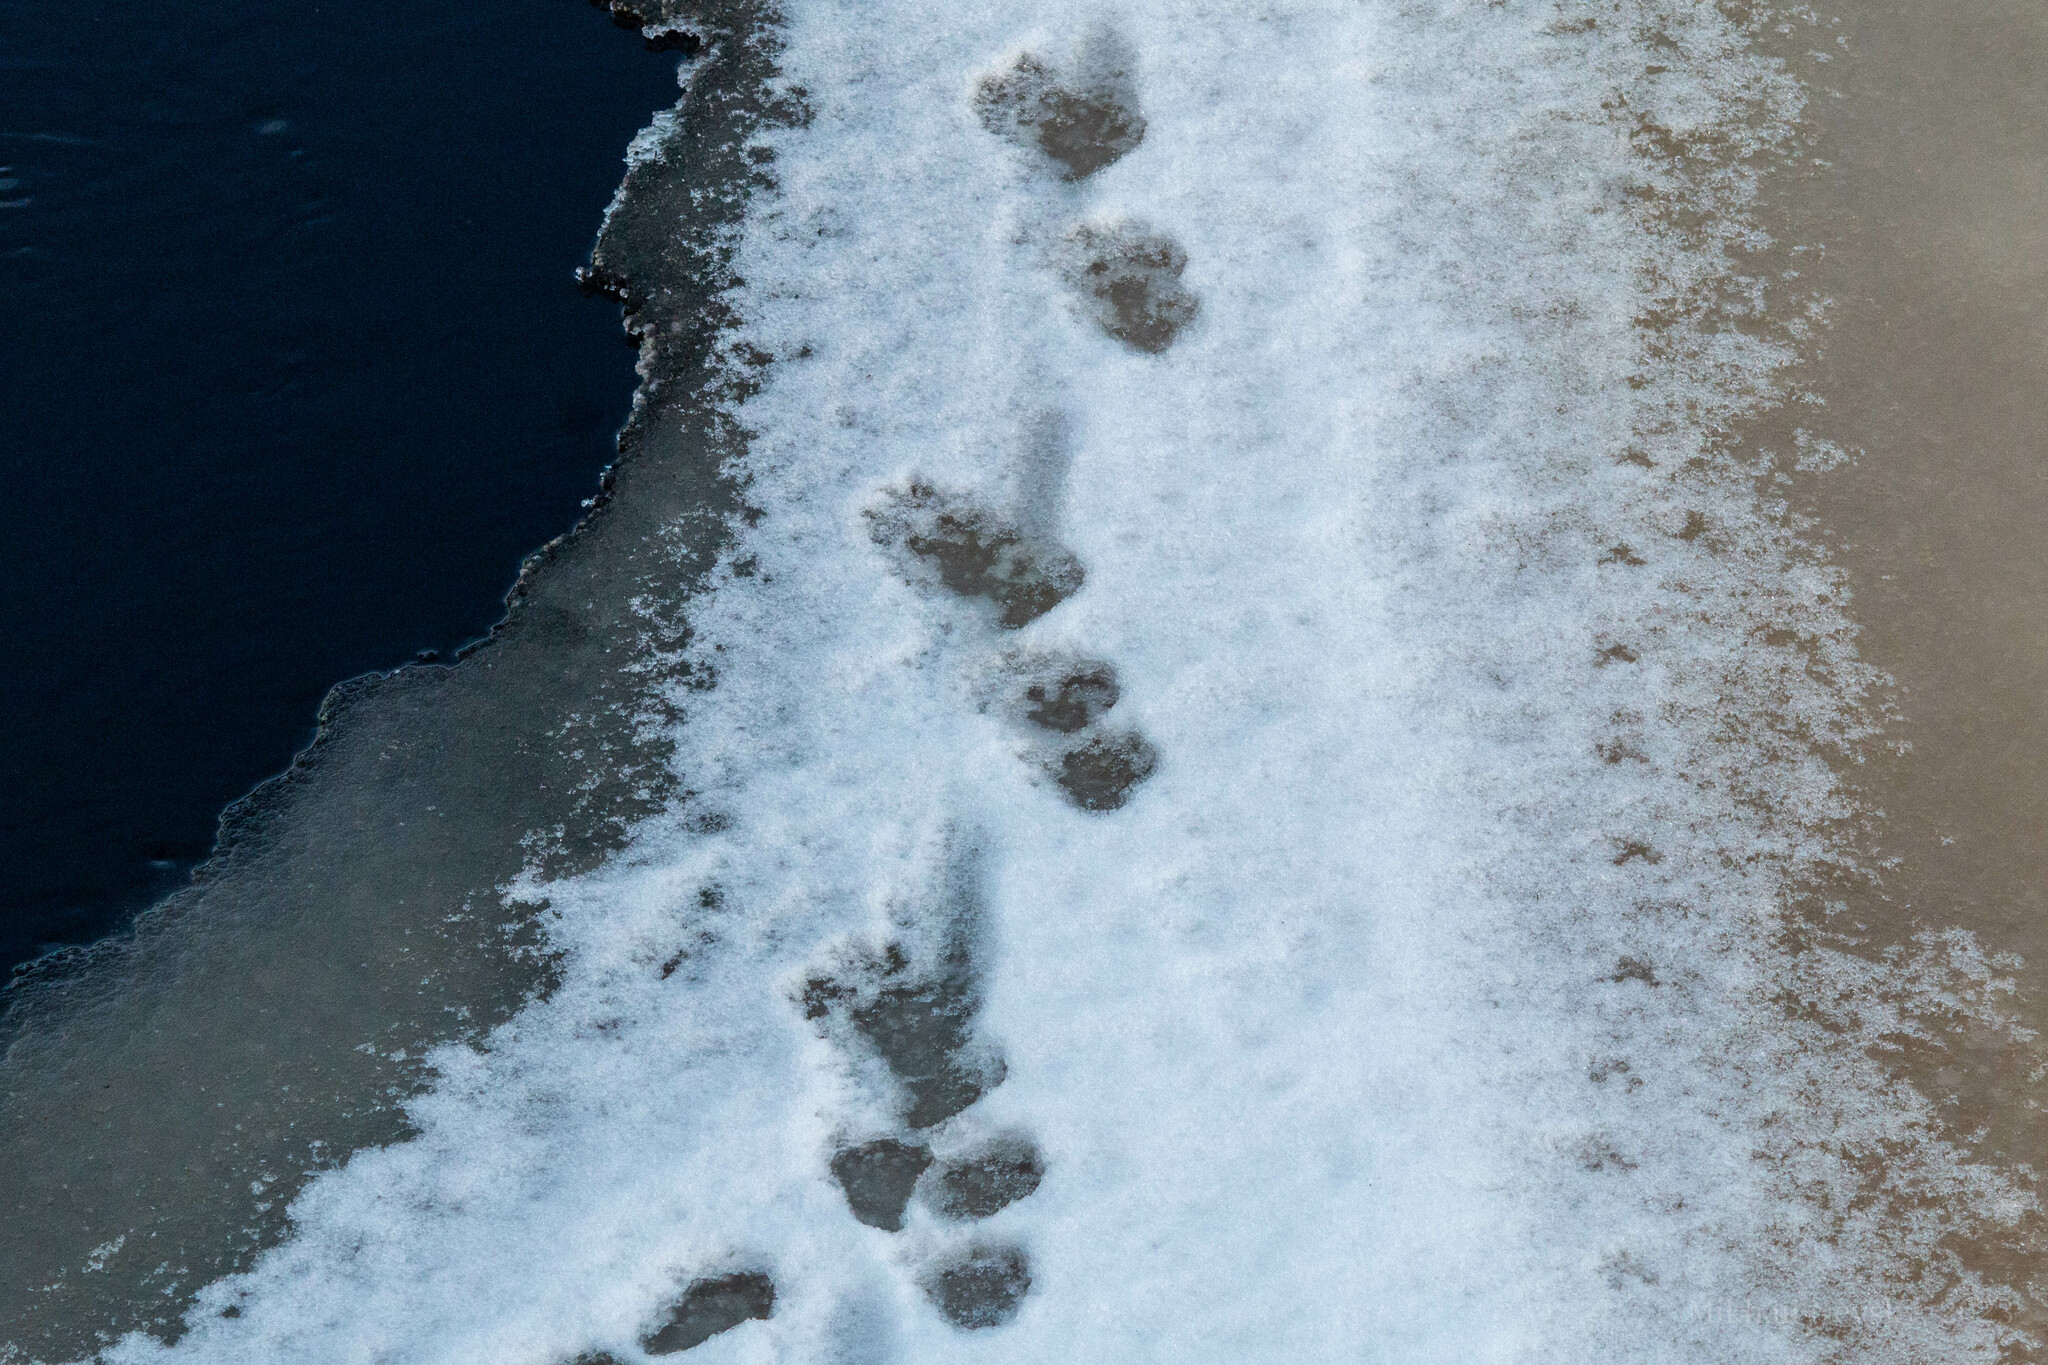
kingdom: Animalia
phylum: Chordata
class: Mammalia
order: Carnivora
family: Mustelidae
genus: Lutra
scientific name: Lutra lutra
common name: European otter
